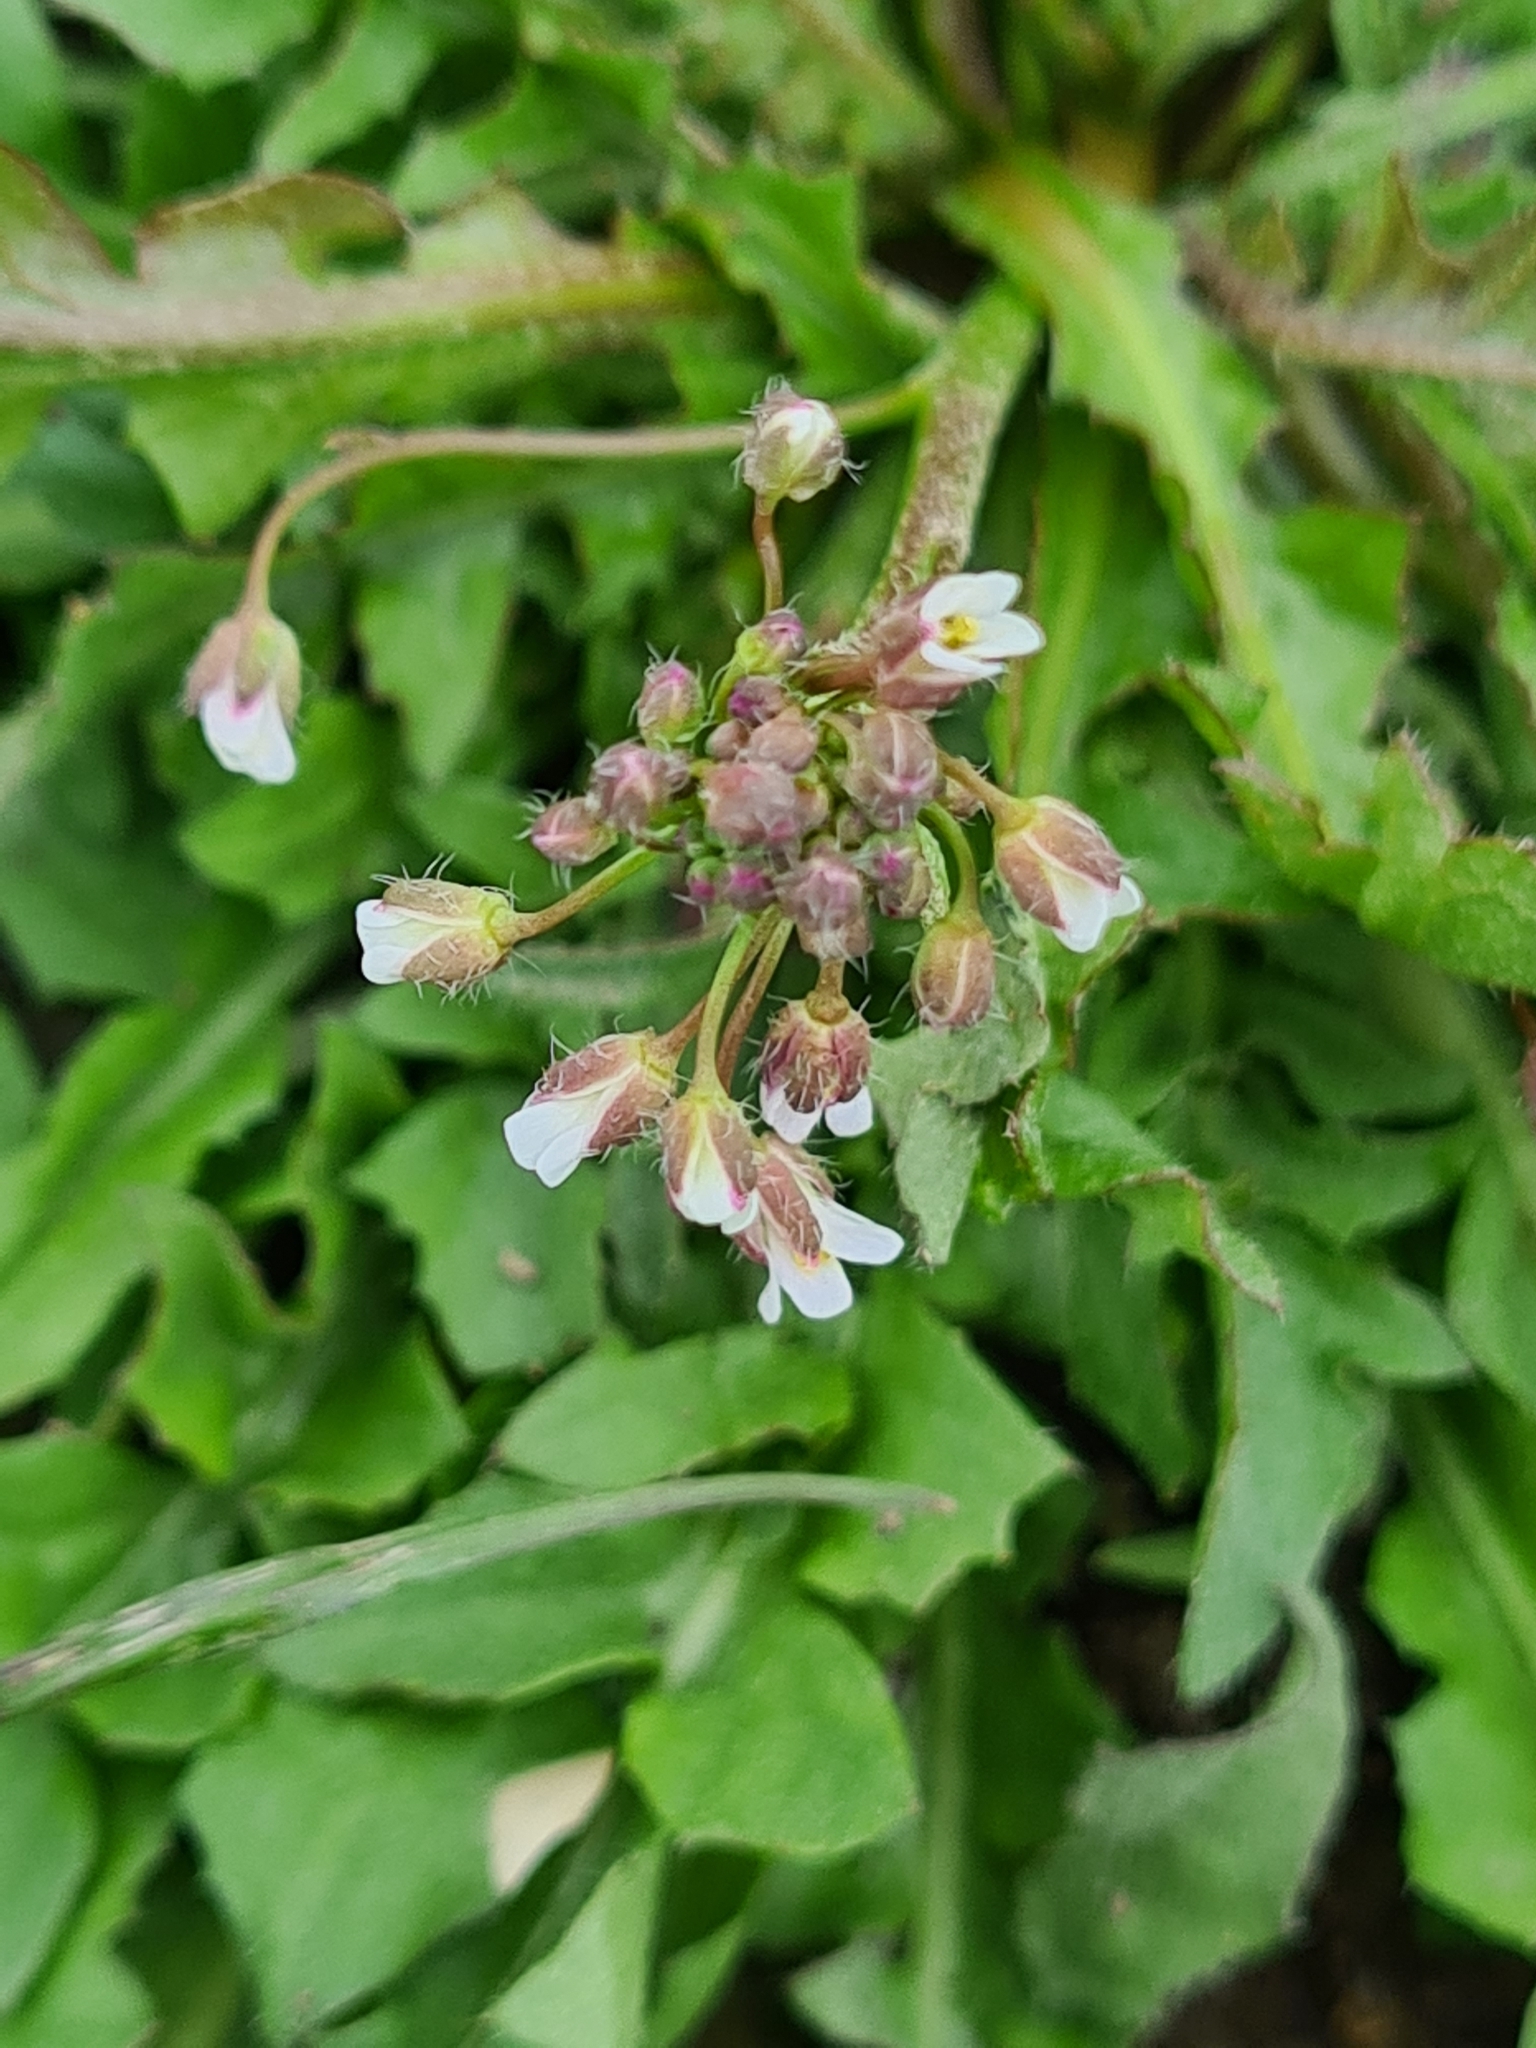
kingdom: Plantae
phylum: Tracheophyta
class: Magnoliopsida
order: Brassicales
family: Brassicaceae
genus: Arabidopsis
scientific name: Arabidopsis arenosa
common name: Sand rock-cress
